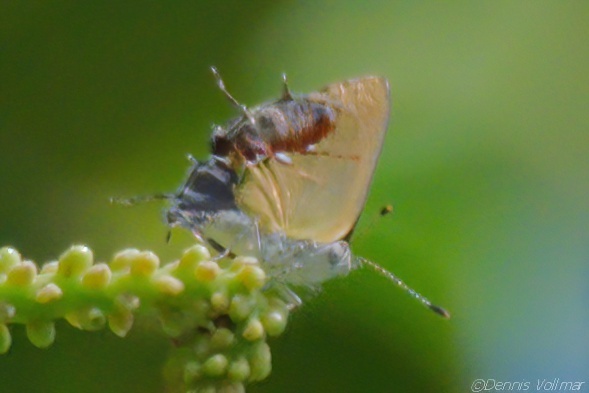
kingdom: Animalia
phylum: Arthropoda
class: Insecta
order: Lepidoptera
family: Lycaenidae
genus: Thecla
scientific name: Thecla maesites
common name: Verde azul hairstreak
